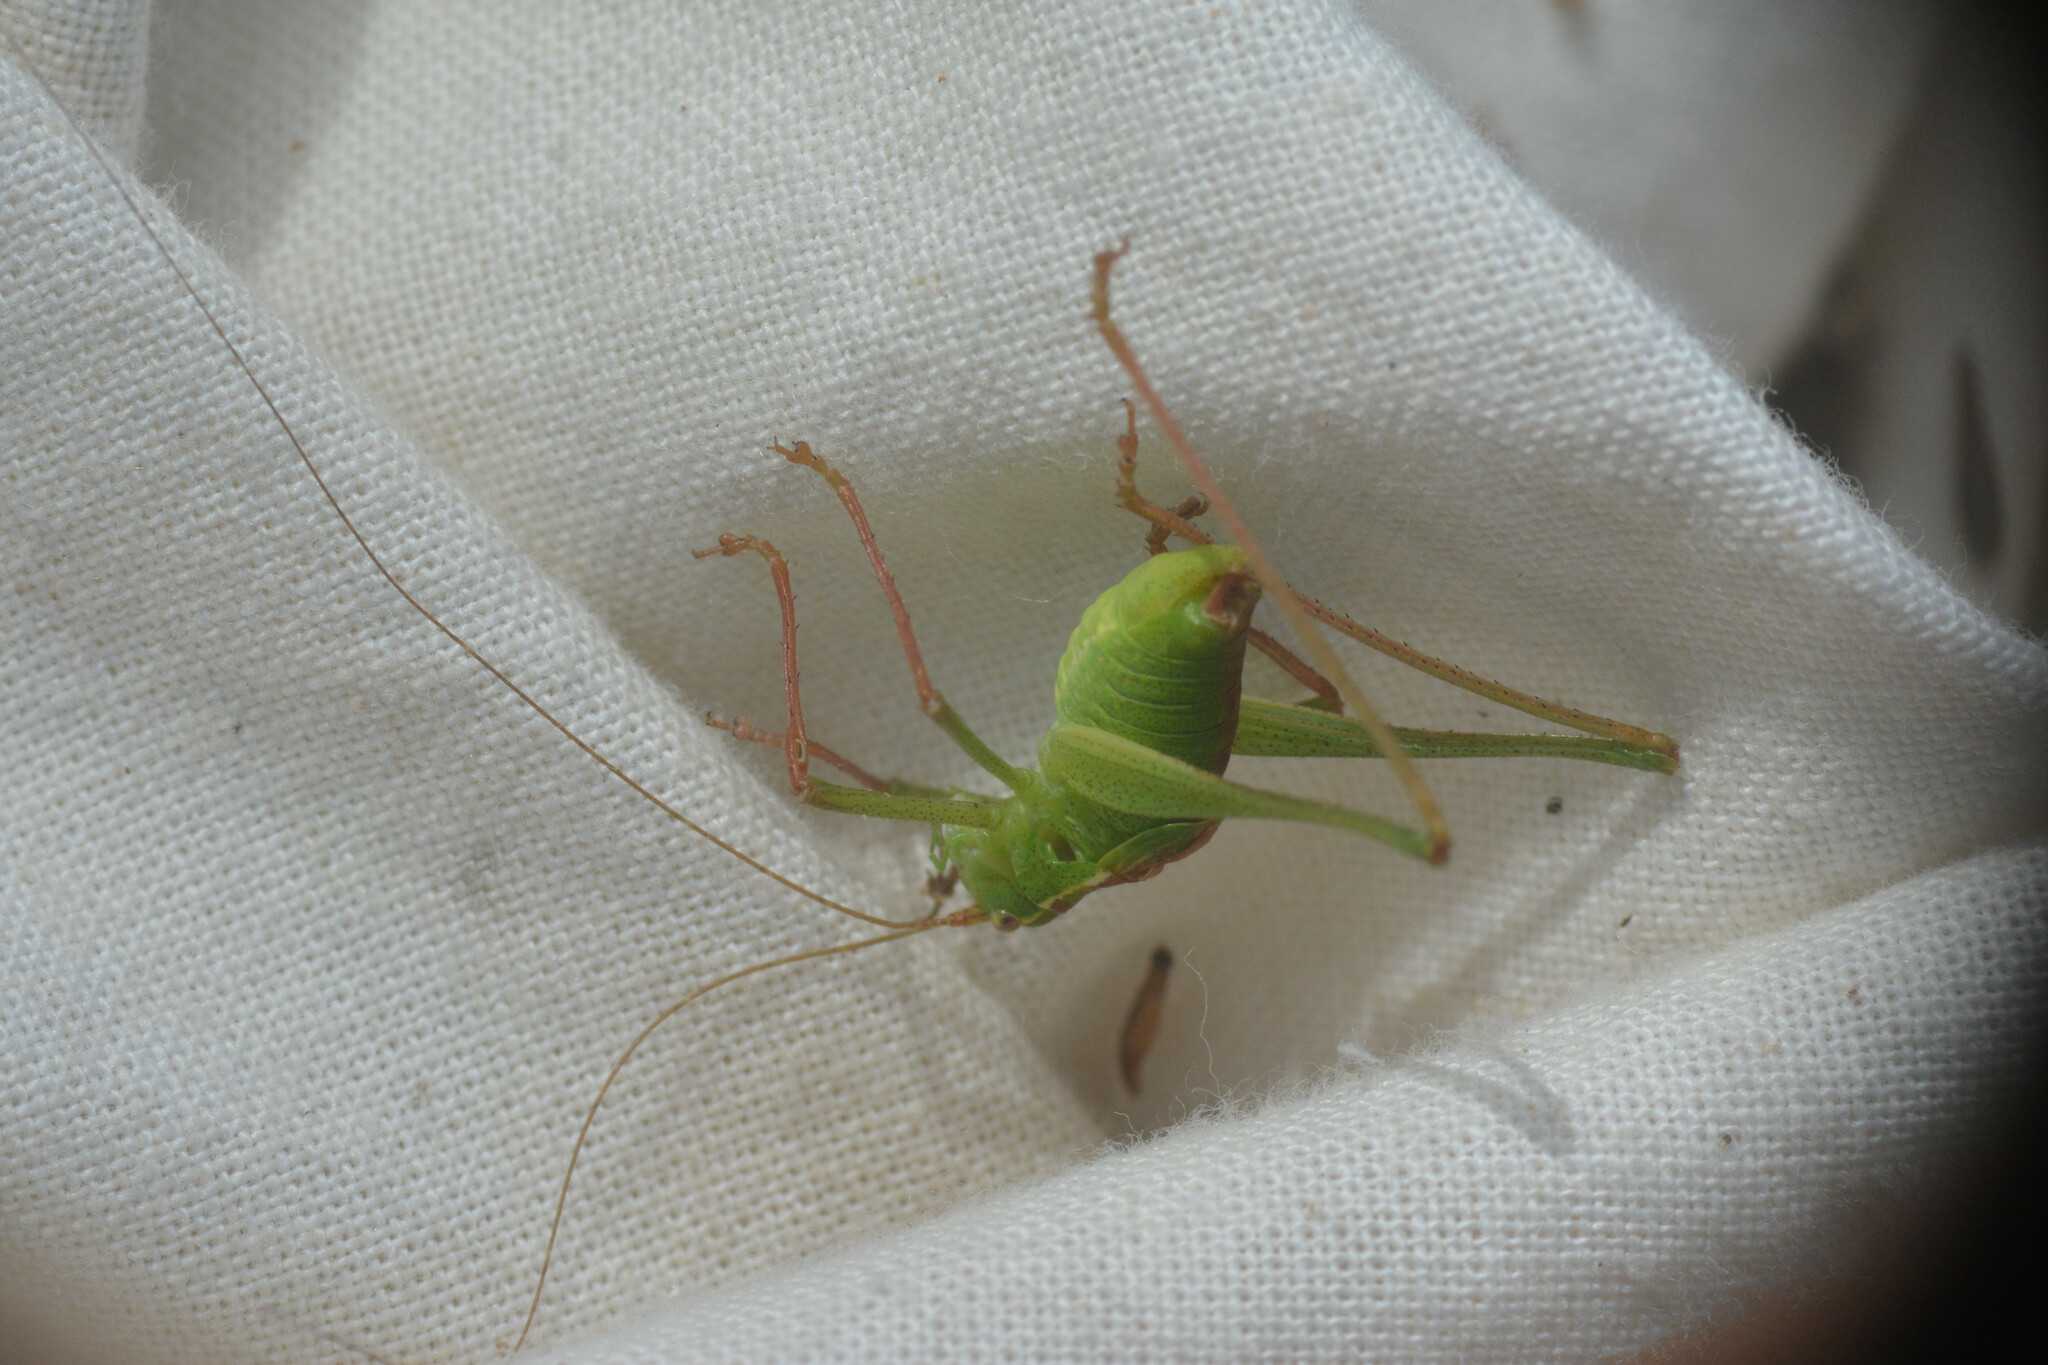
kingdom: Animalia
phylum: Arthropoda
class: Insecta
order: Orthoptera
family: Tettigoniidae
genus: Leptophyes
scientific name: Leptophyes punctatissima
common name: Speckled bush-cricket
